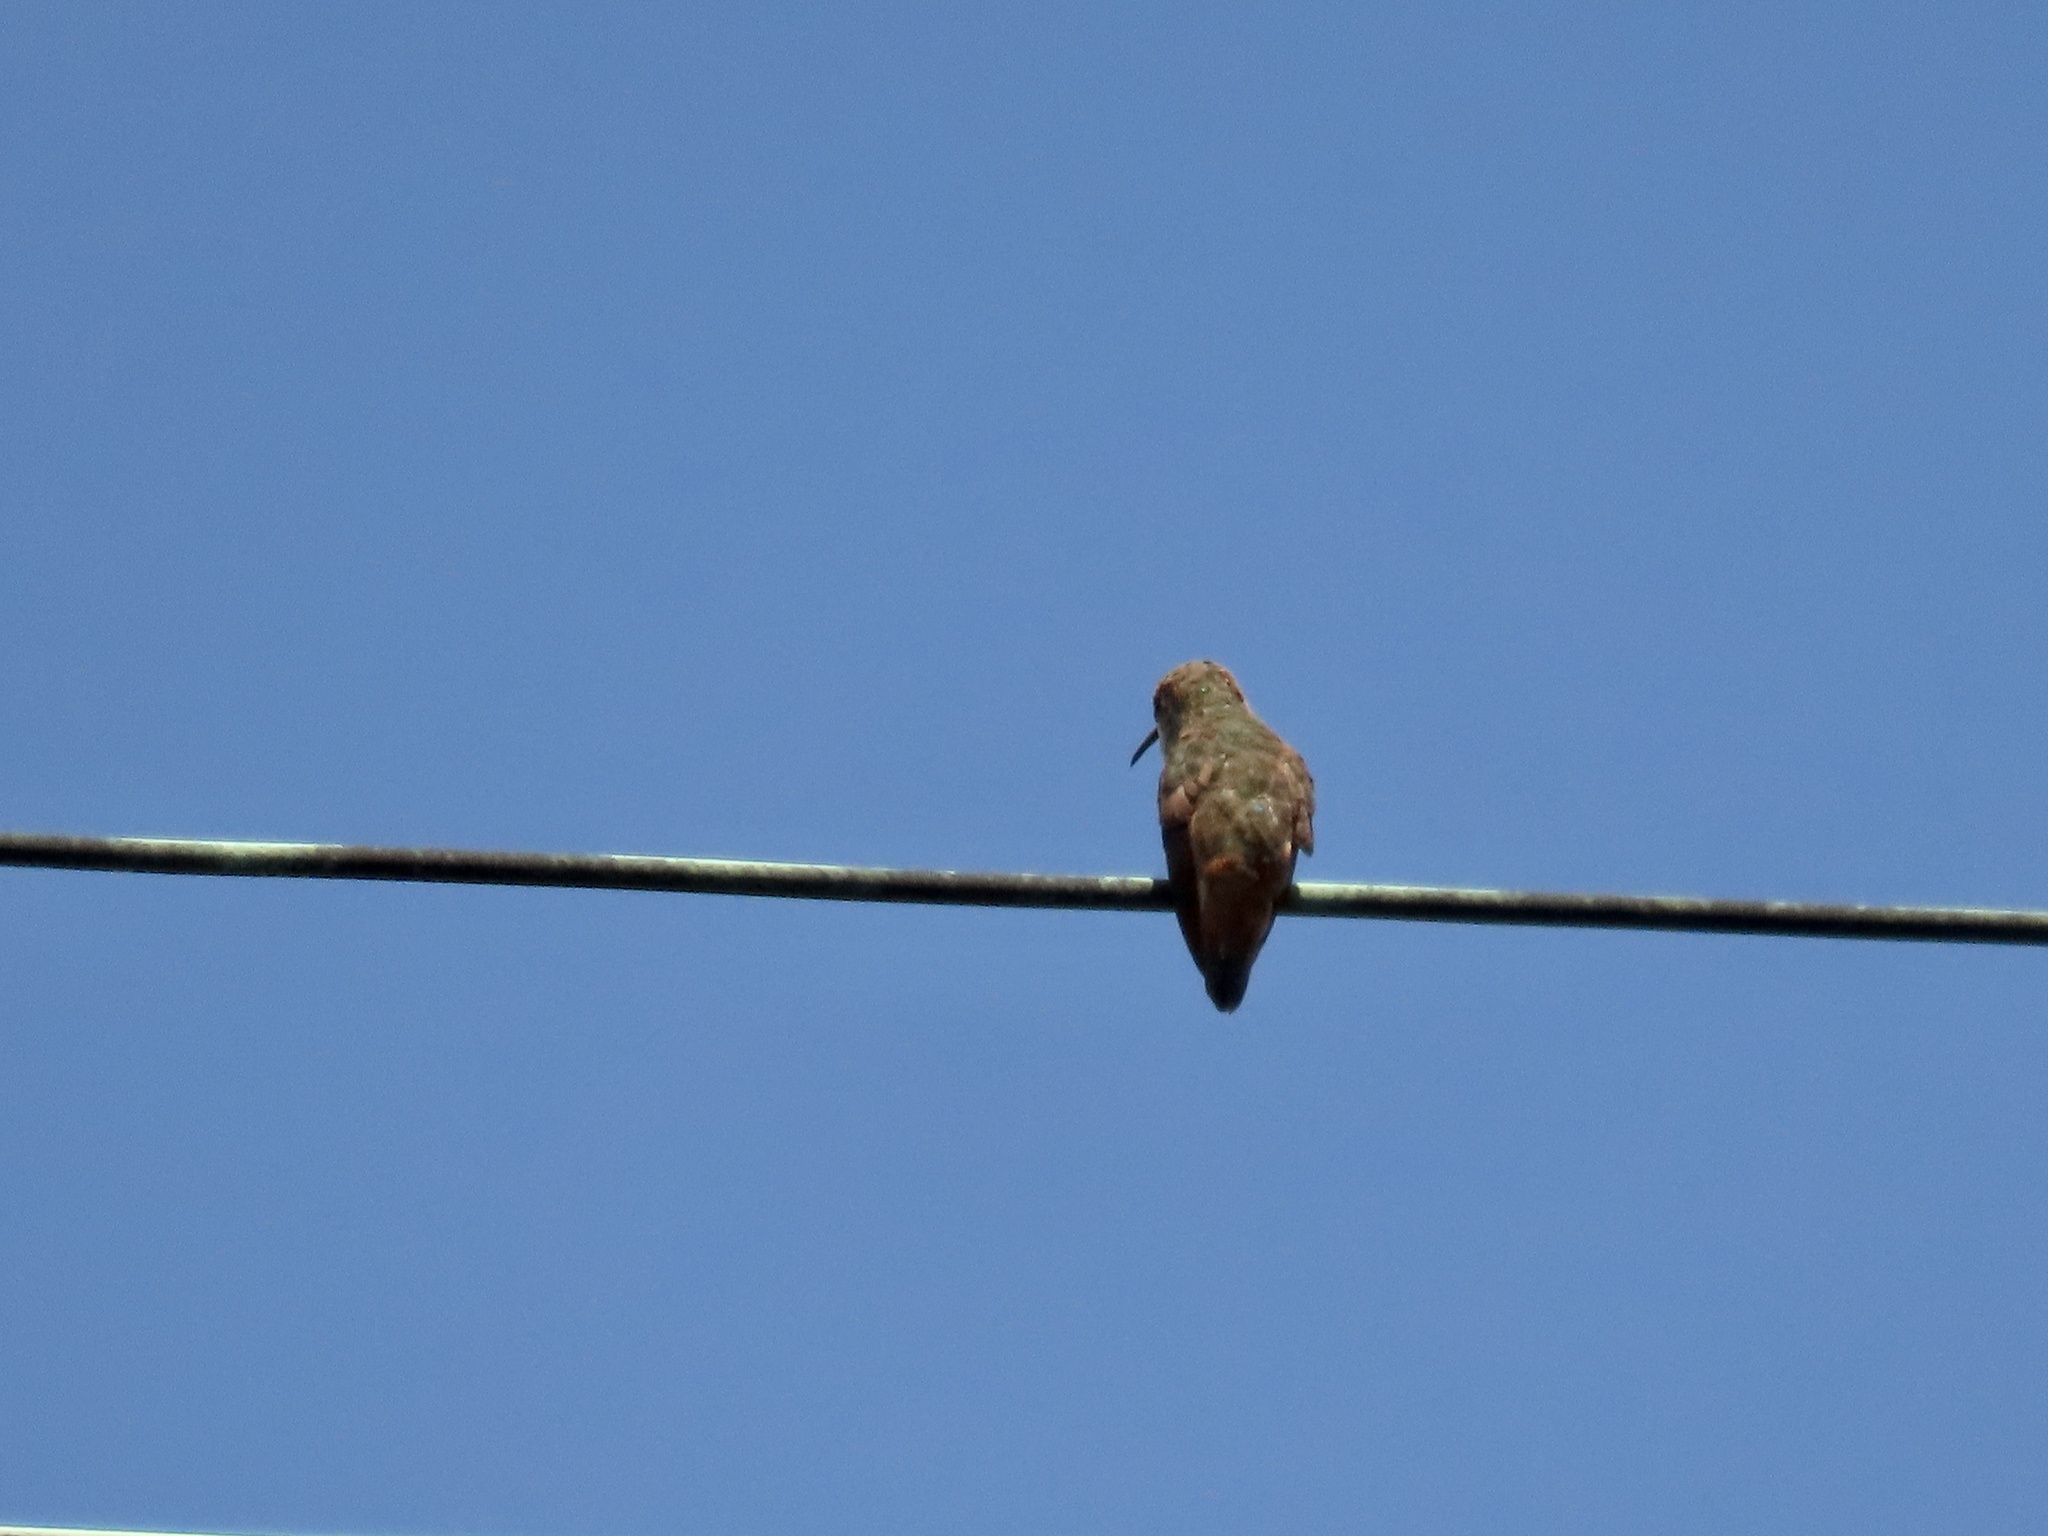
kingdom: Animalia
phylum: Chordata
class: Aves
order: Apodiformes
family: Trochilidae
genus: Selasphorus
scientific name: Selasphorus sasin
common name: Allen's hummingbird
